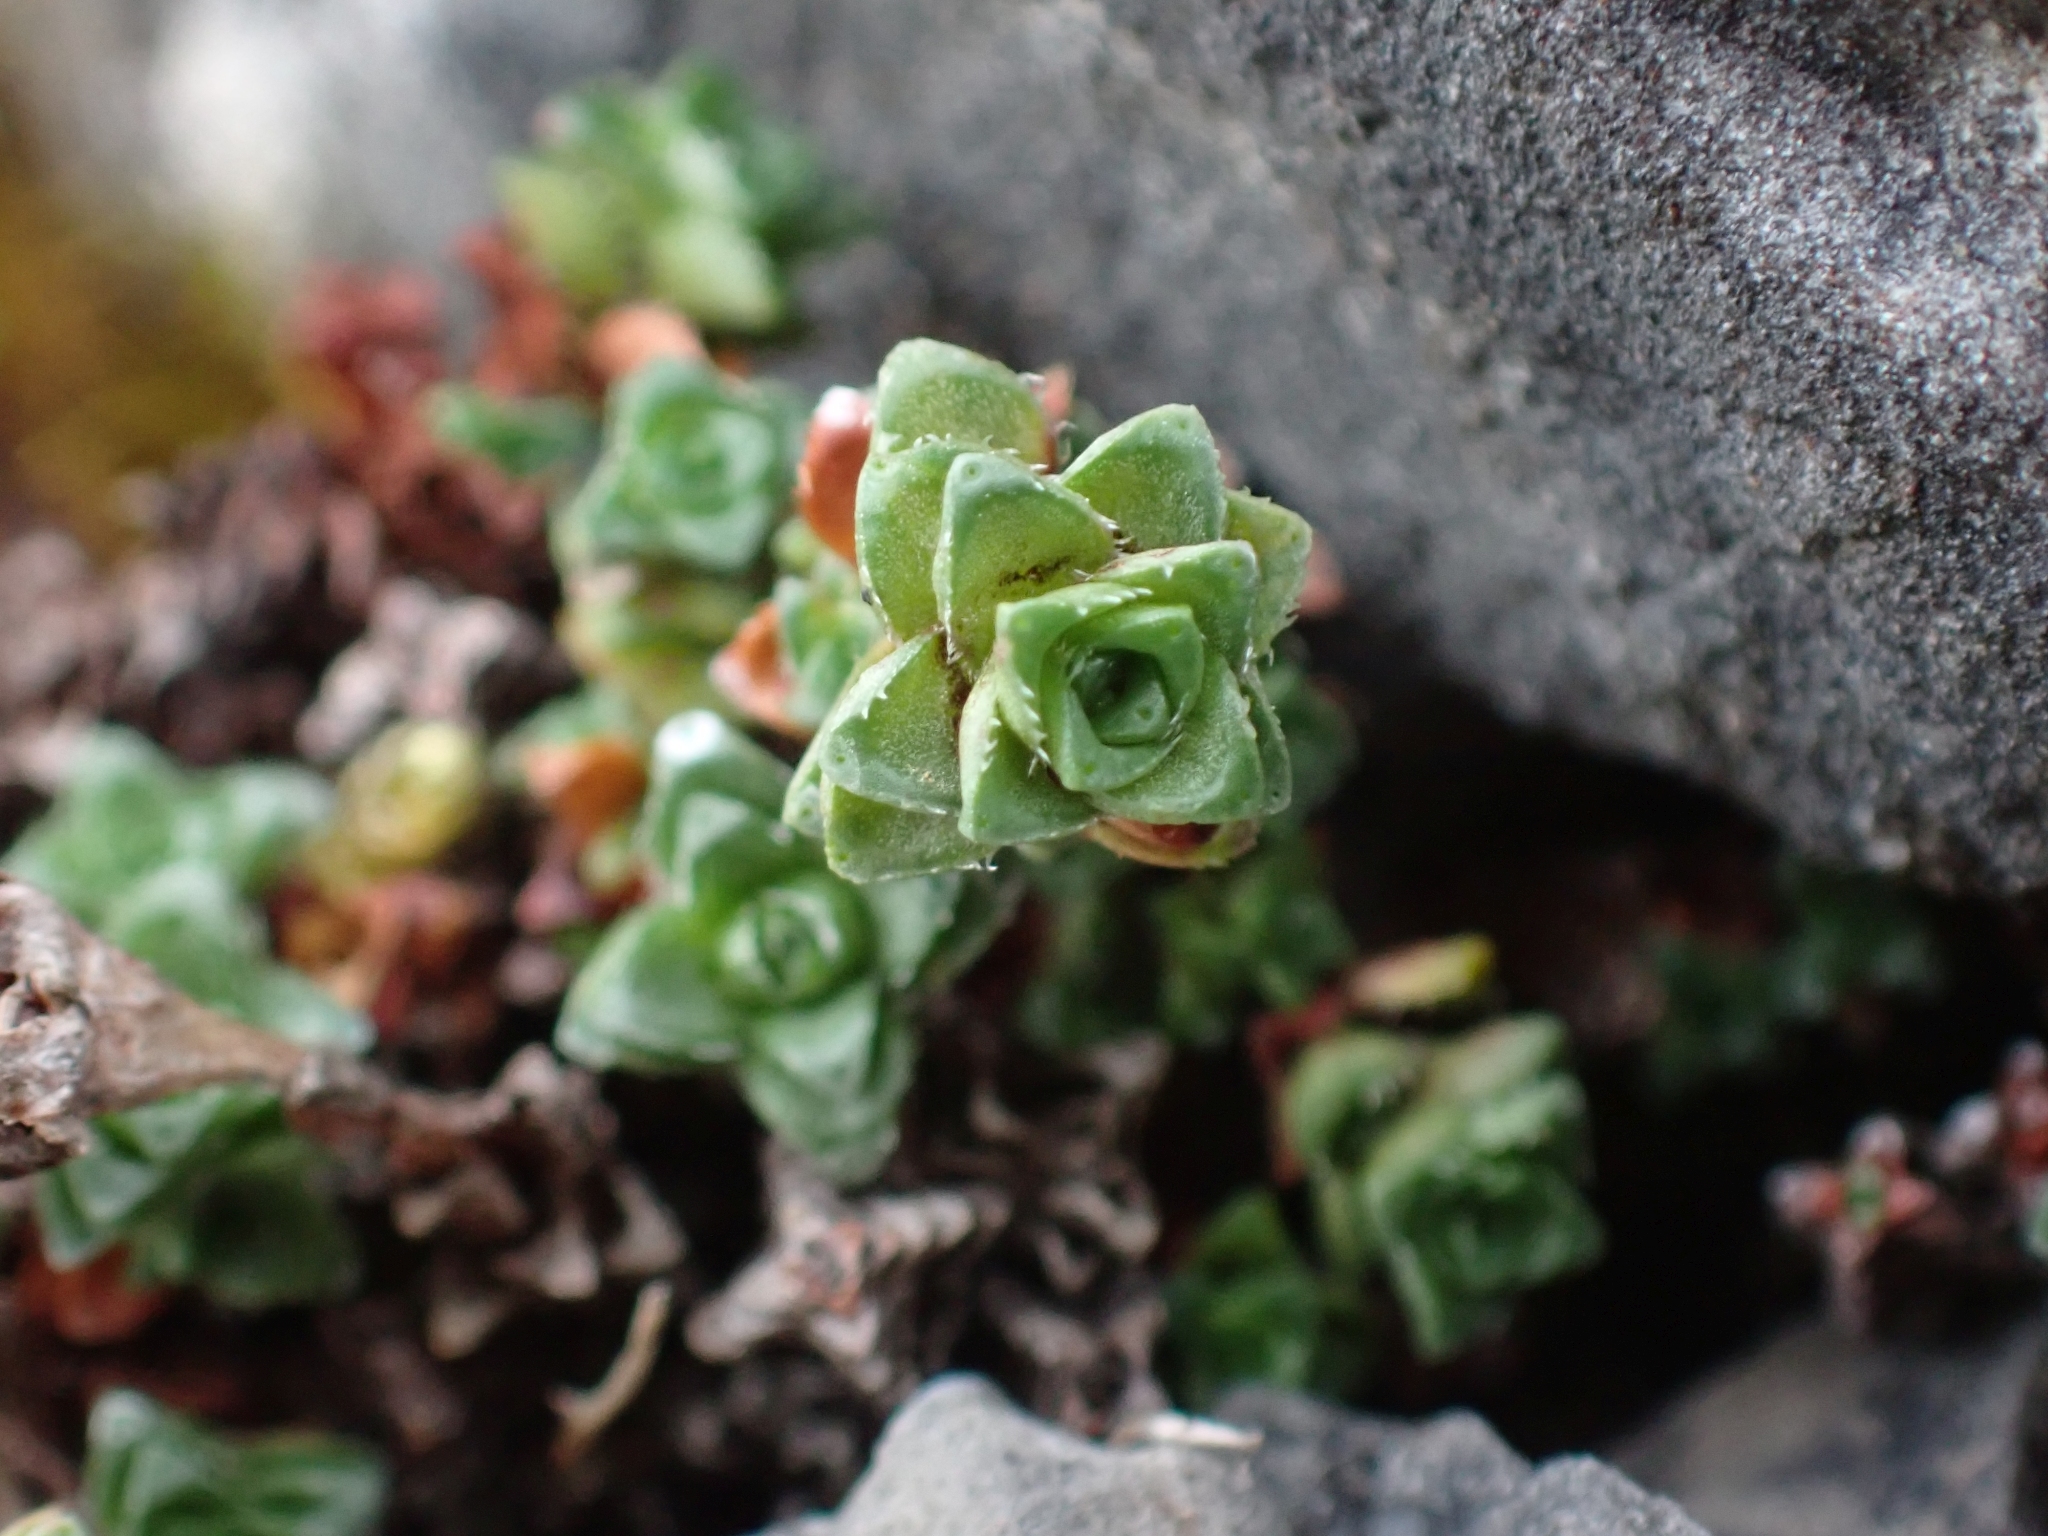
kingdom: Plantae
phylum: Tracheophyta
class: Magnoliopsida
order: Saxifragales
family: Saxifragaceae
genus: Saxifraga
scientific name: Saxifraga oppositifolia
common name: Purple saxifrage
